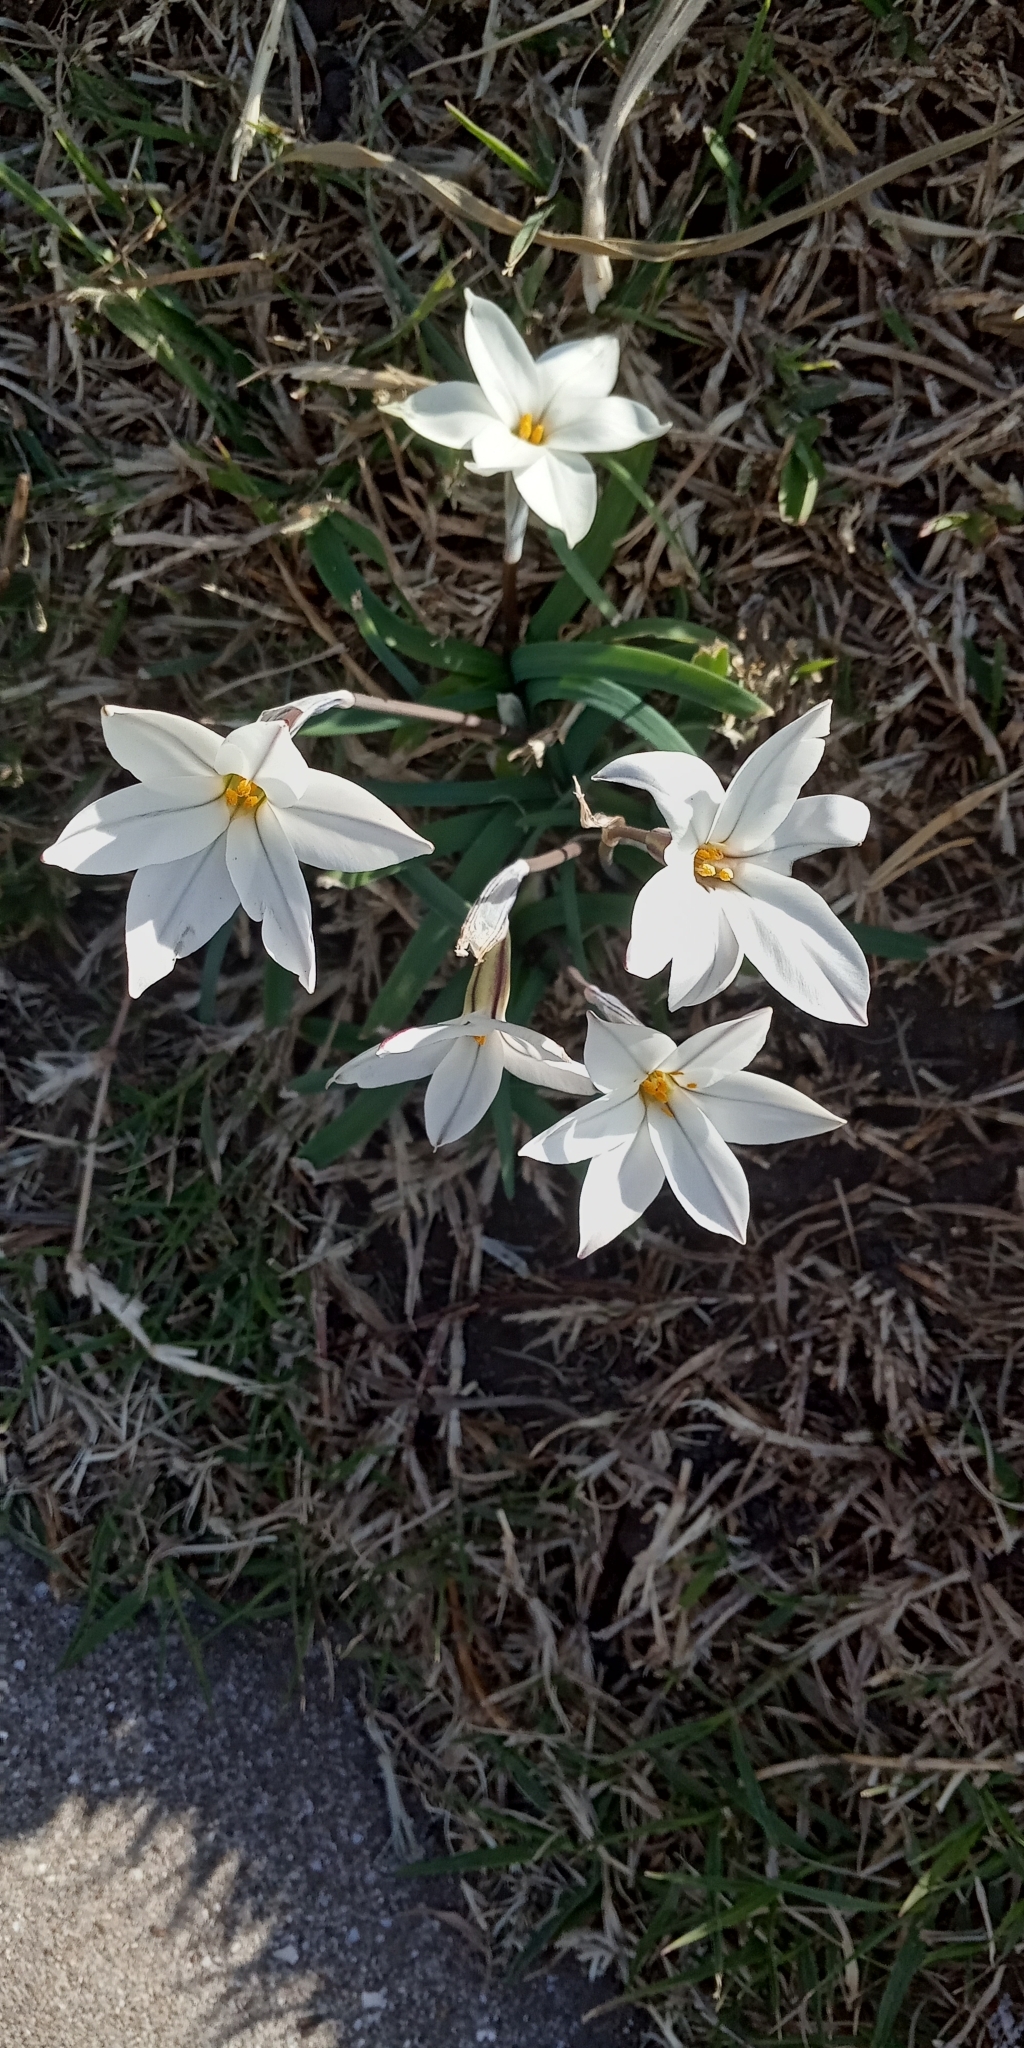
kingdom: Plantae
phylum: Tracheophyta
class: Liliopsida
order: Asparagales
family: Amaryllidaceae
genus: Ipheion
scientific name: Ipheion uniflorum
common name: Spring starflower
